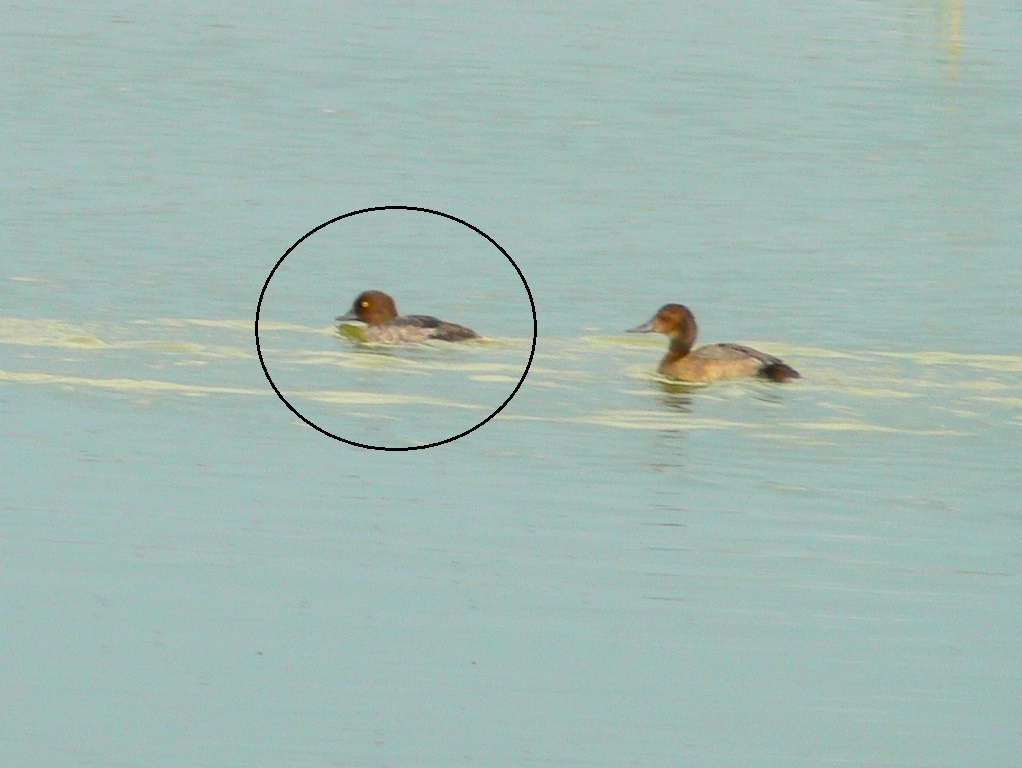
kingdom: Animalia
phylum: Chordata
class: Aves
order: Anseriformes
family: Anatidae
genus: Bucephala
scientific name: Bucephala clangula
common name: Common goldeneye
